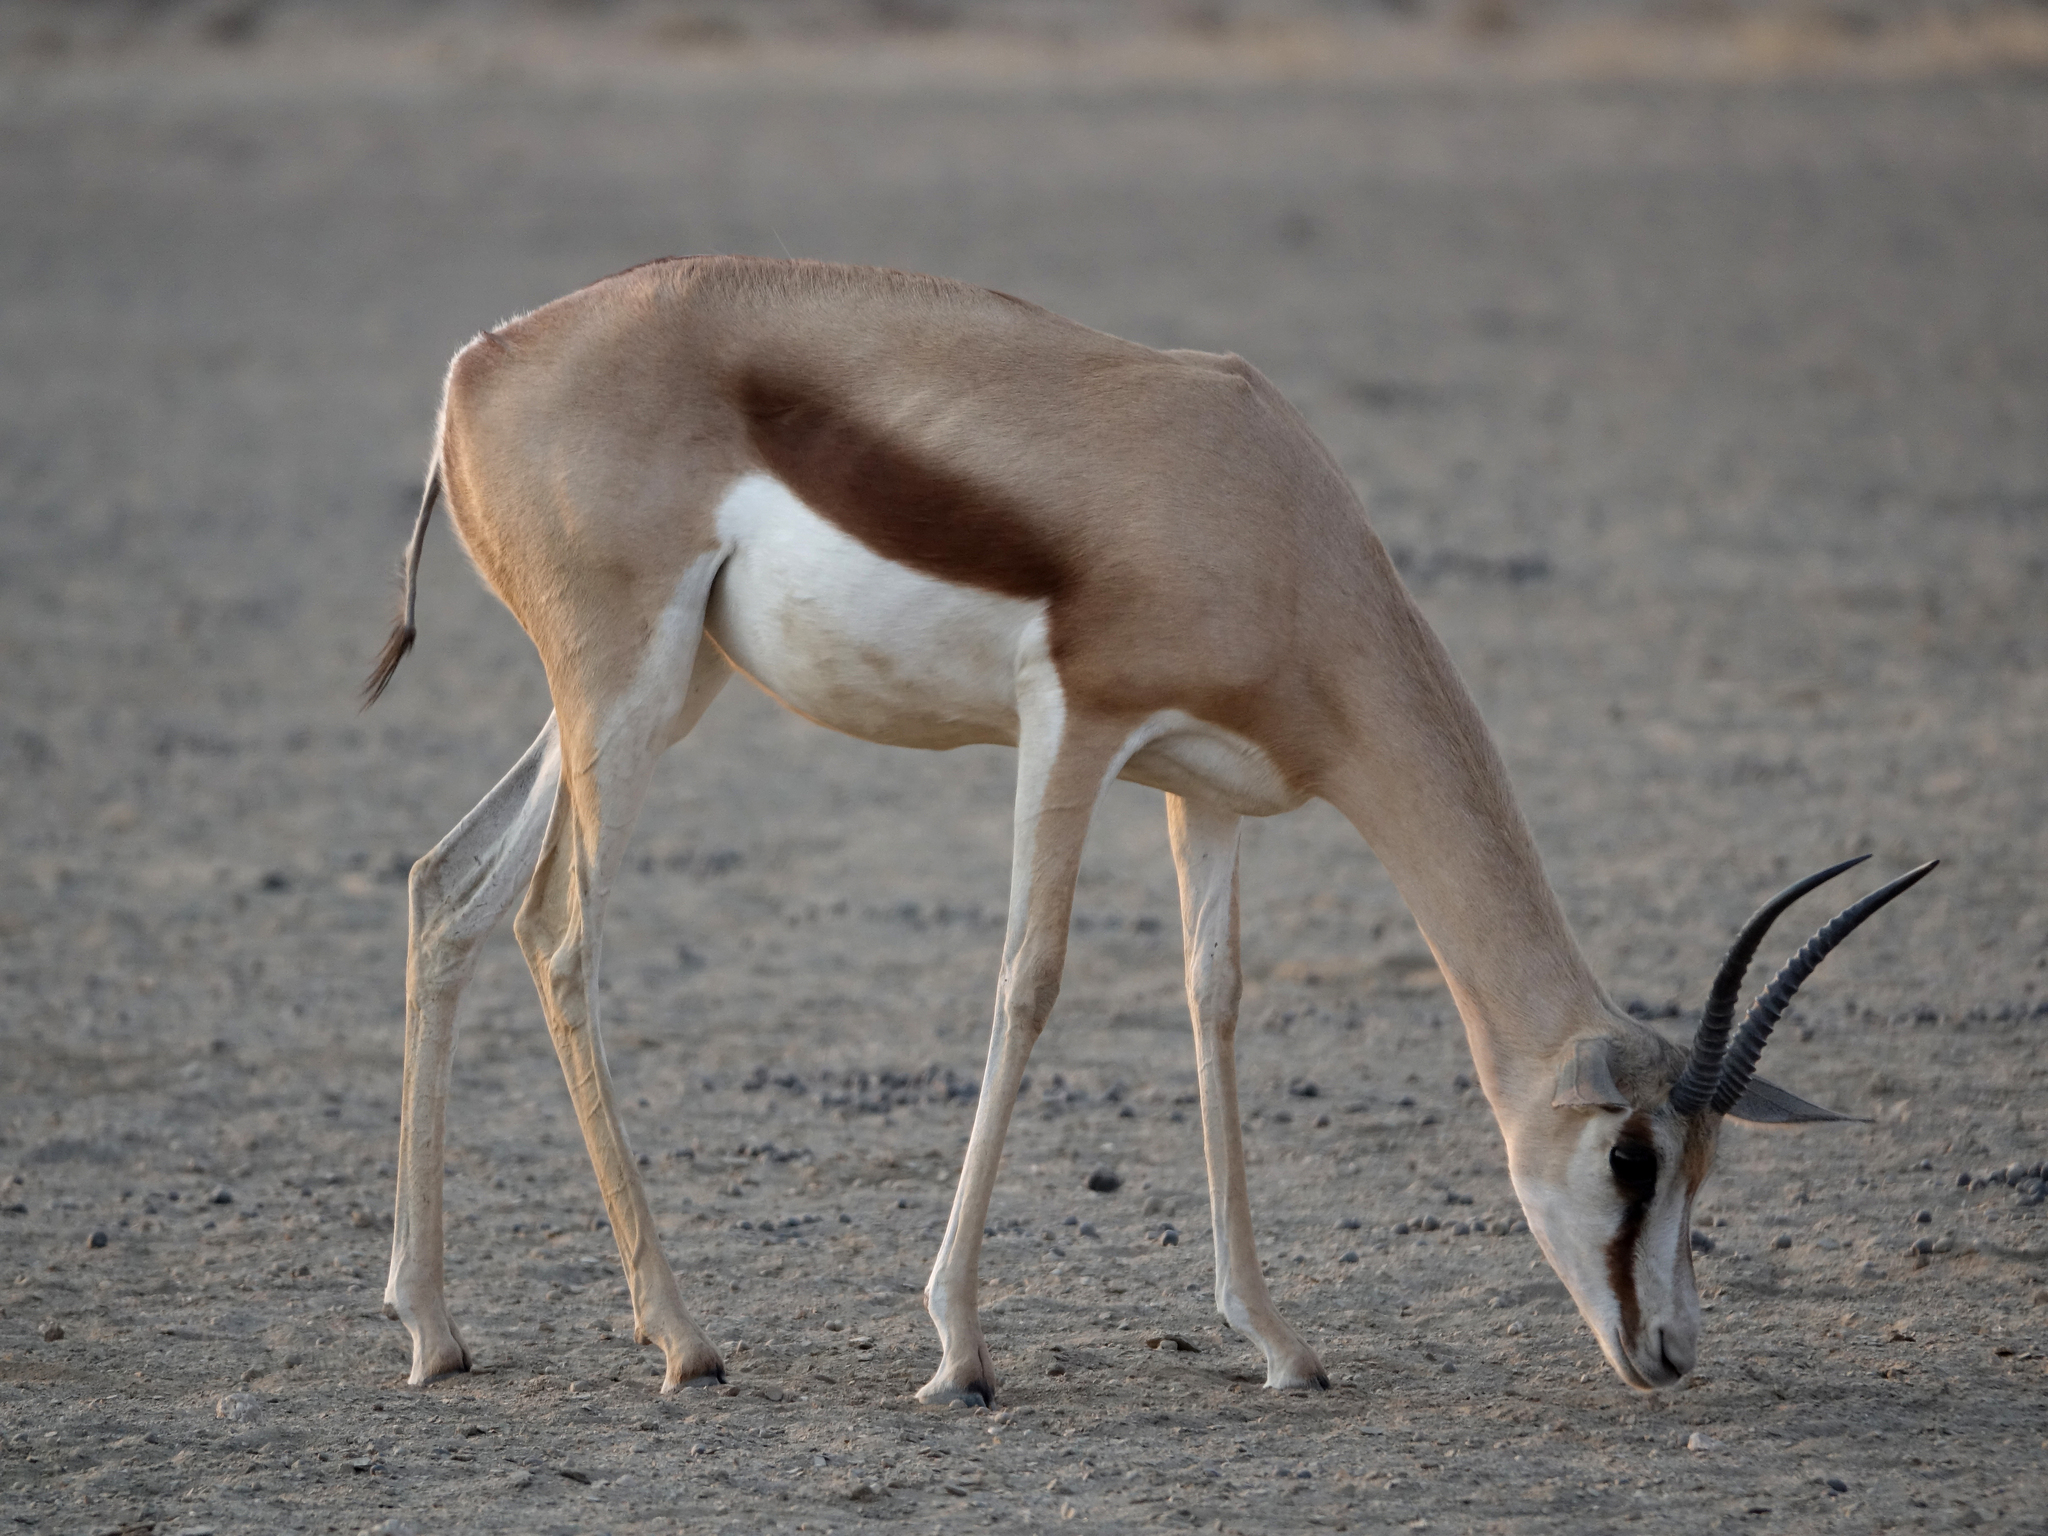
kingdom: Animalia
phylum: Chordata
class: Mammalia
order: Artiodactyla
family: Bovidae
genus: Antidorcas
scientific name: Antidorcas marsupialis
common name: Springbok
